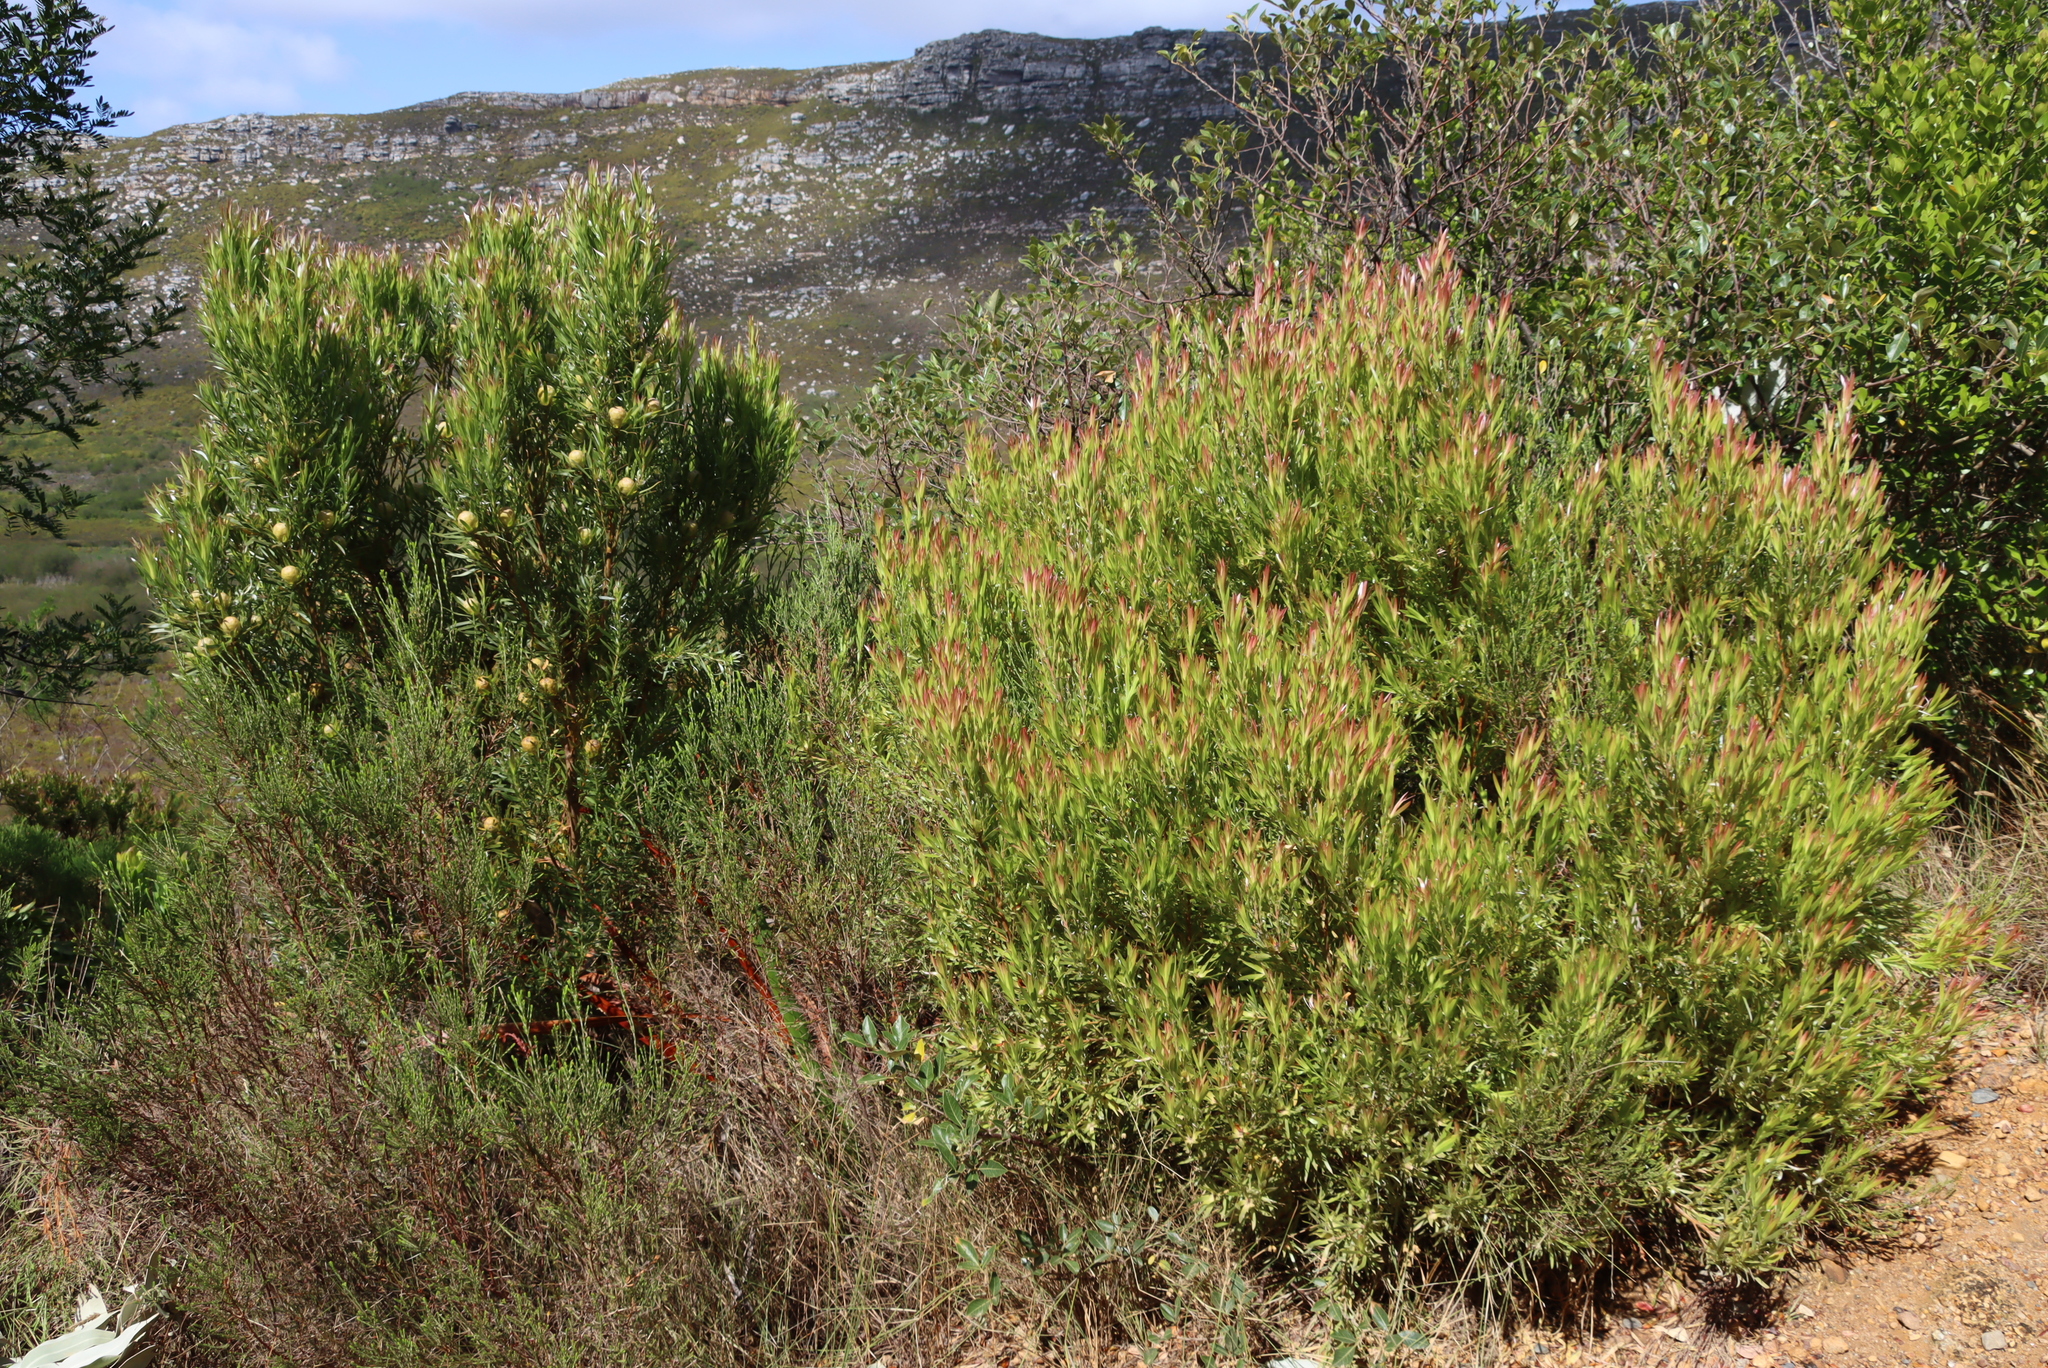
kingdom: Plantae
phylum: Tracheophyta
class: Magnoliopsida
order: Proteales
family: Proteaceae
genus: Leucadendron
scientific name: Leucadendron xanthoconus
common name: Sickle-leaf conebush
